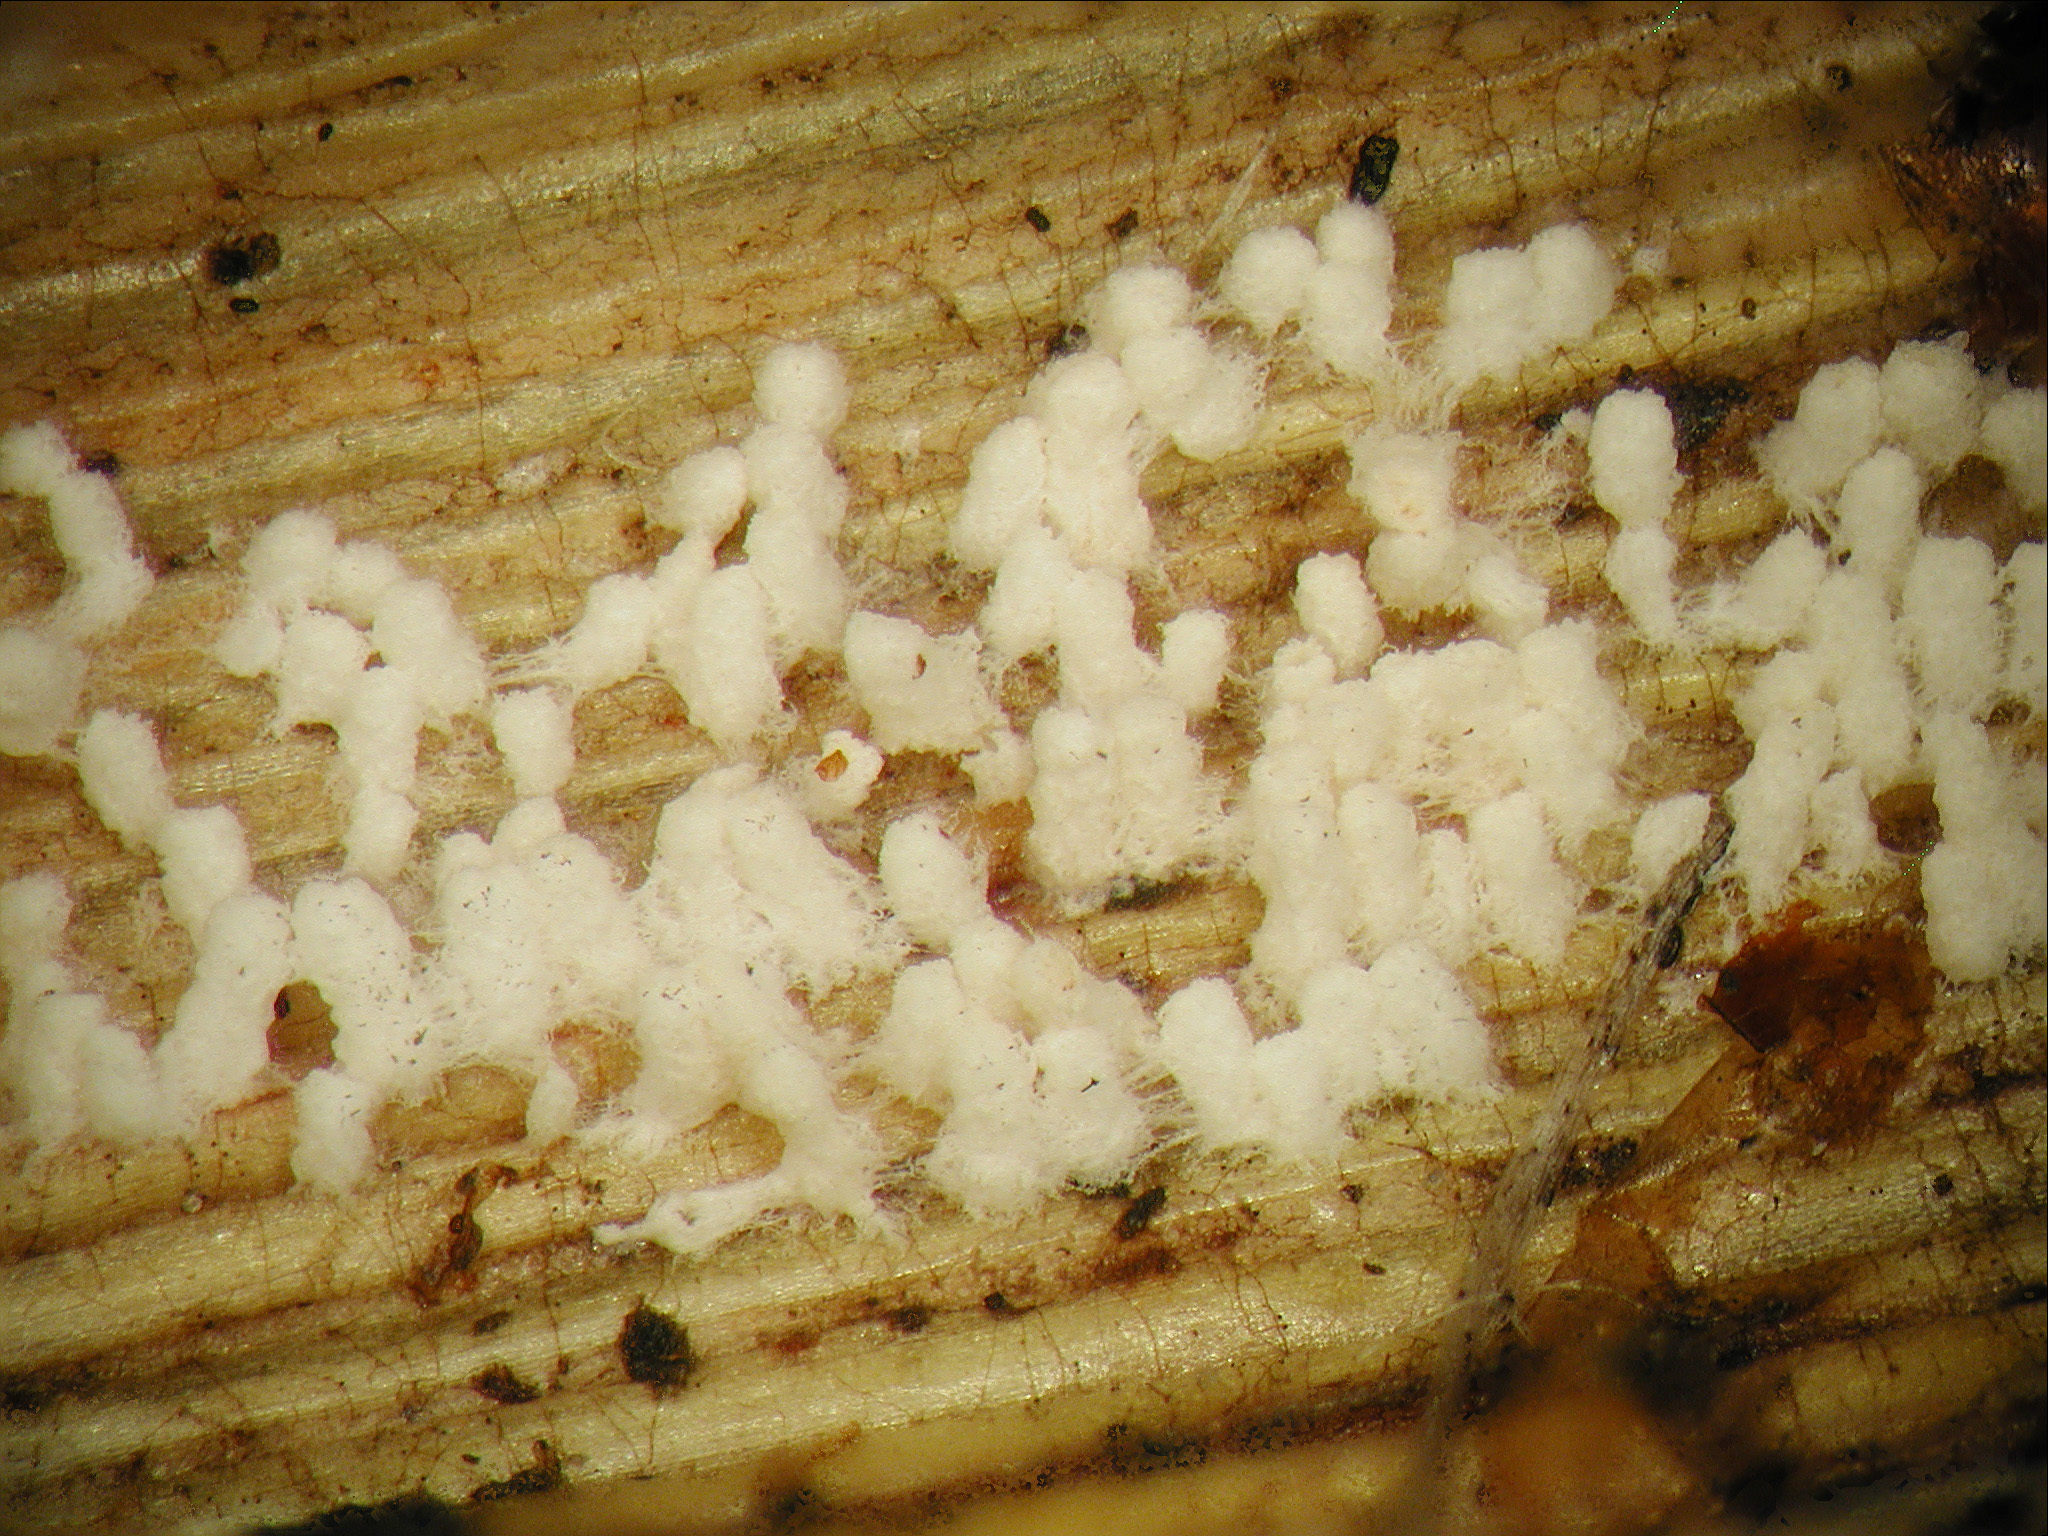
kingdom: Fungi
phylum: Basidiomycota
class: Agaricomycetes
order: Agaricales
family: Marasmiaceae
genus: Rectipilus
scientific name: Rectipilus fasciculatus
